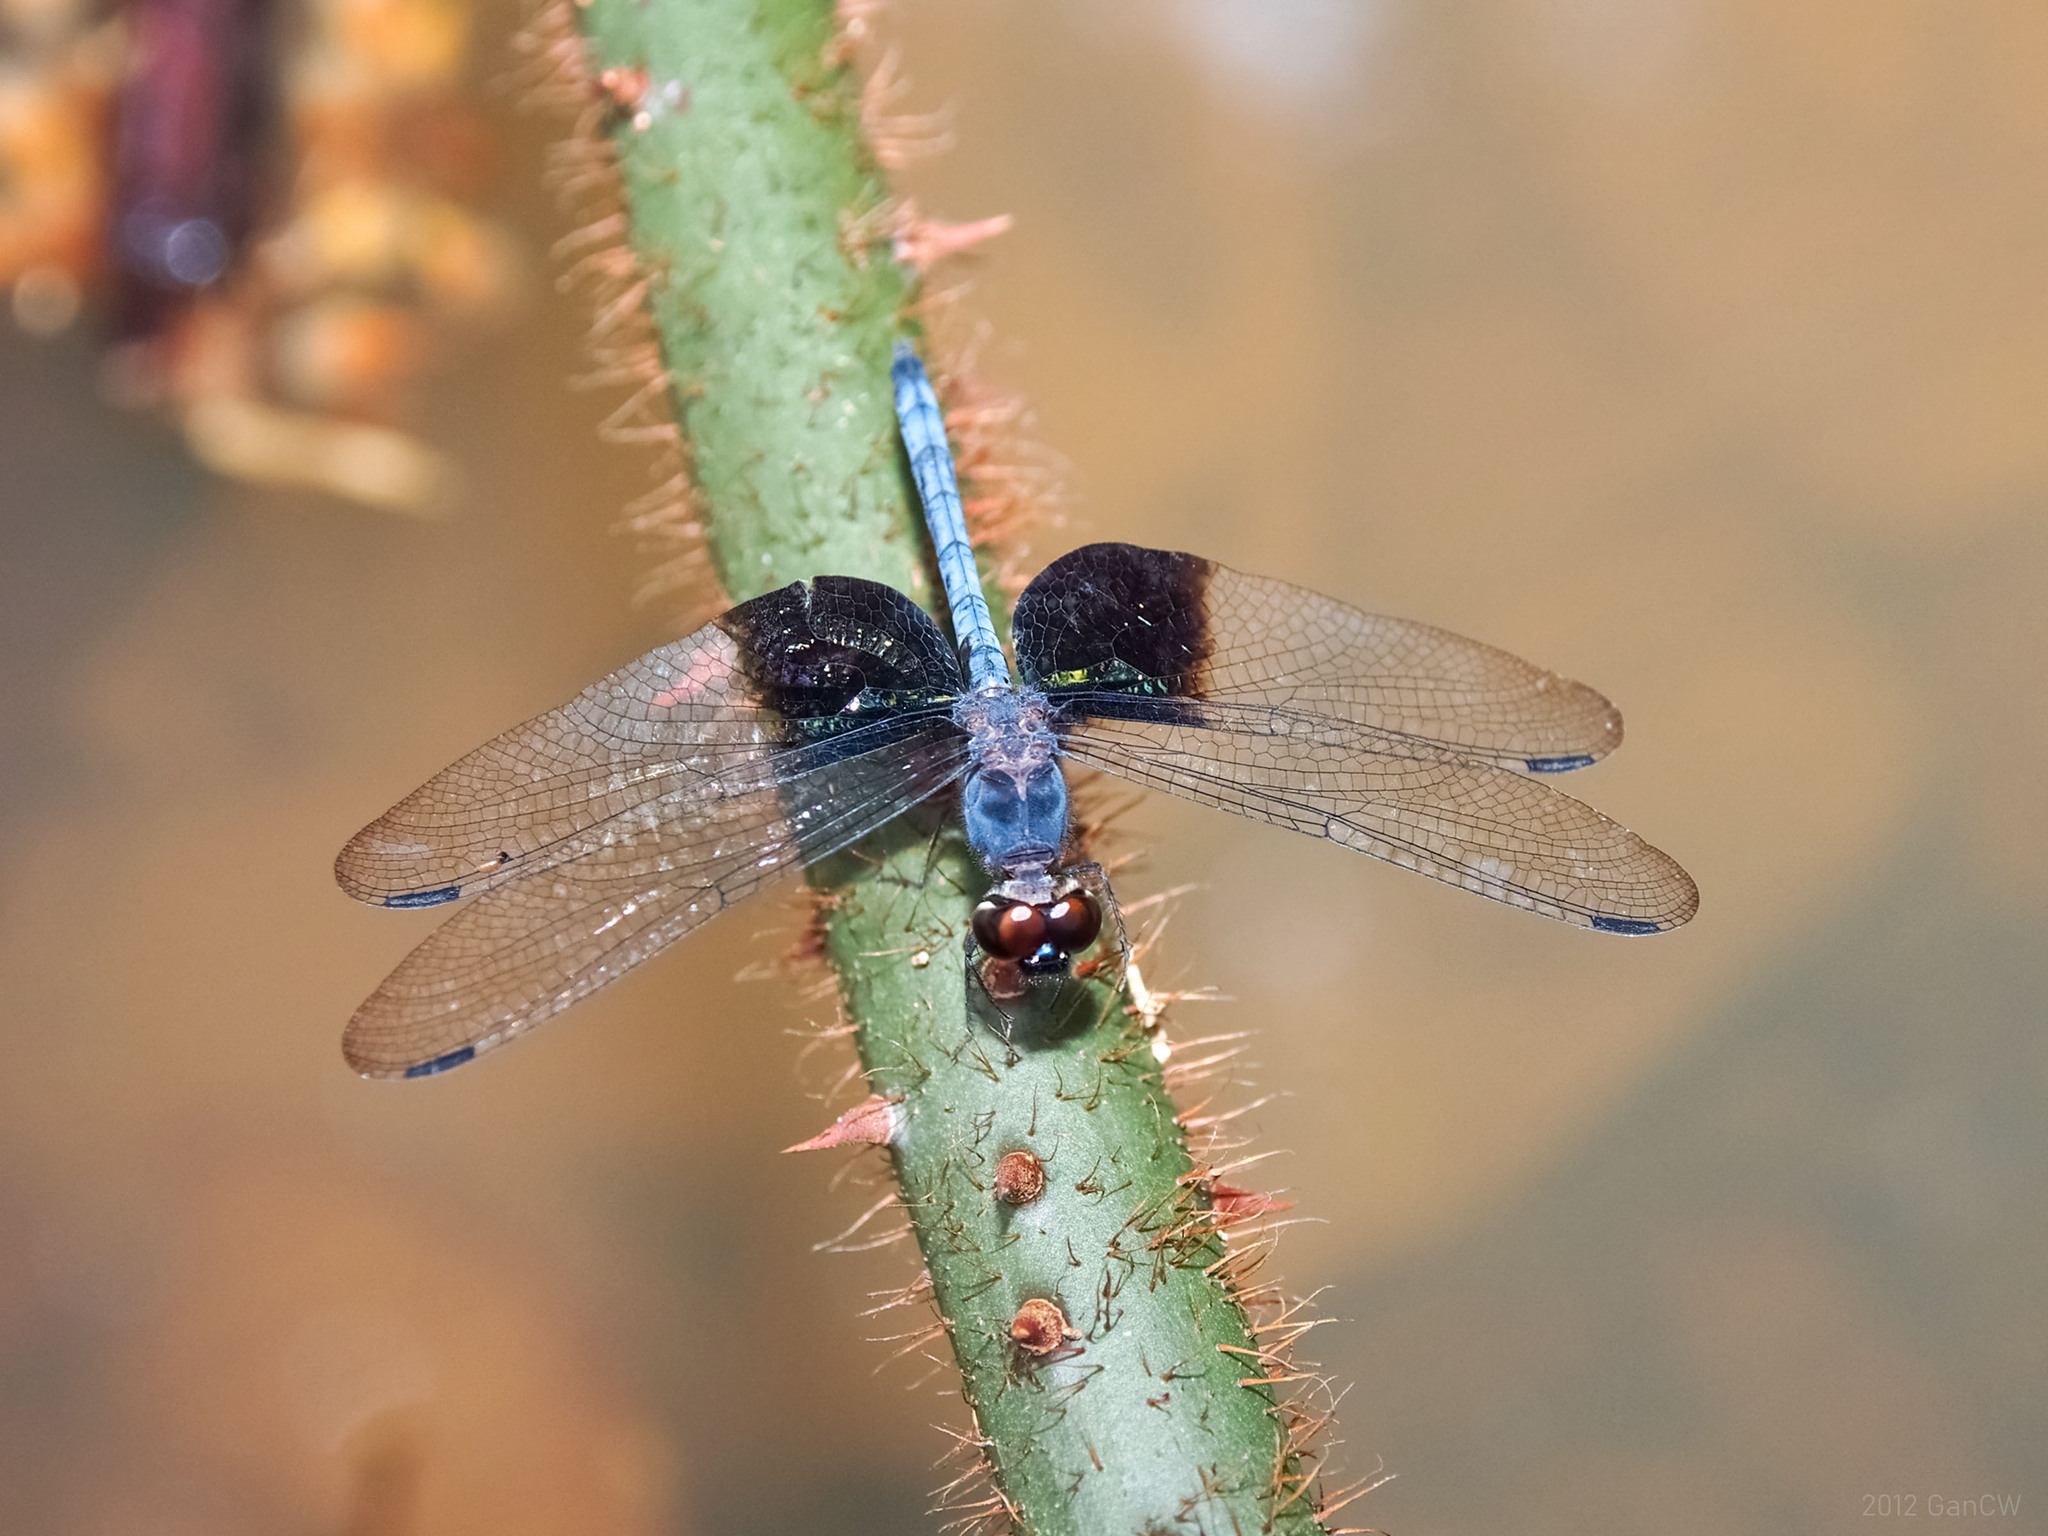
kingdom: Animalia
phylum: Arthropoda
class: Insecta
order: Odonata
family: Libellulidae
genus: Tyriobapta
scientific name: Tyriobapta torrida
